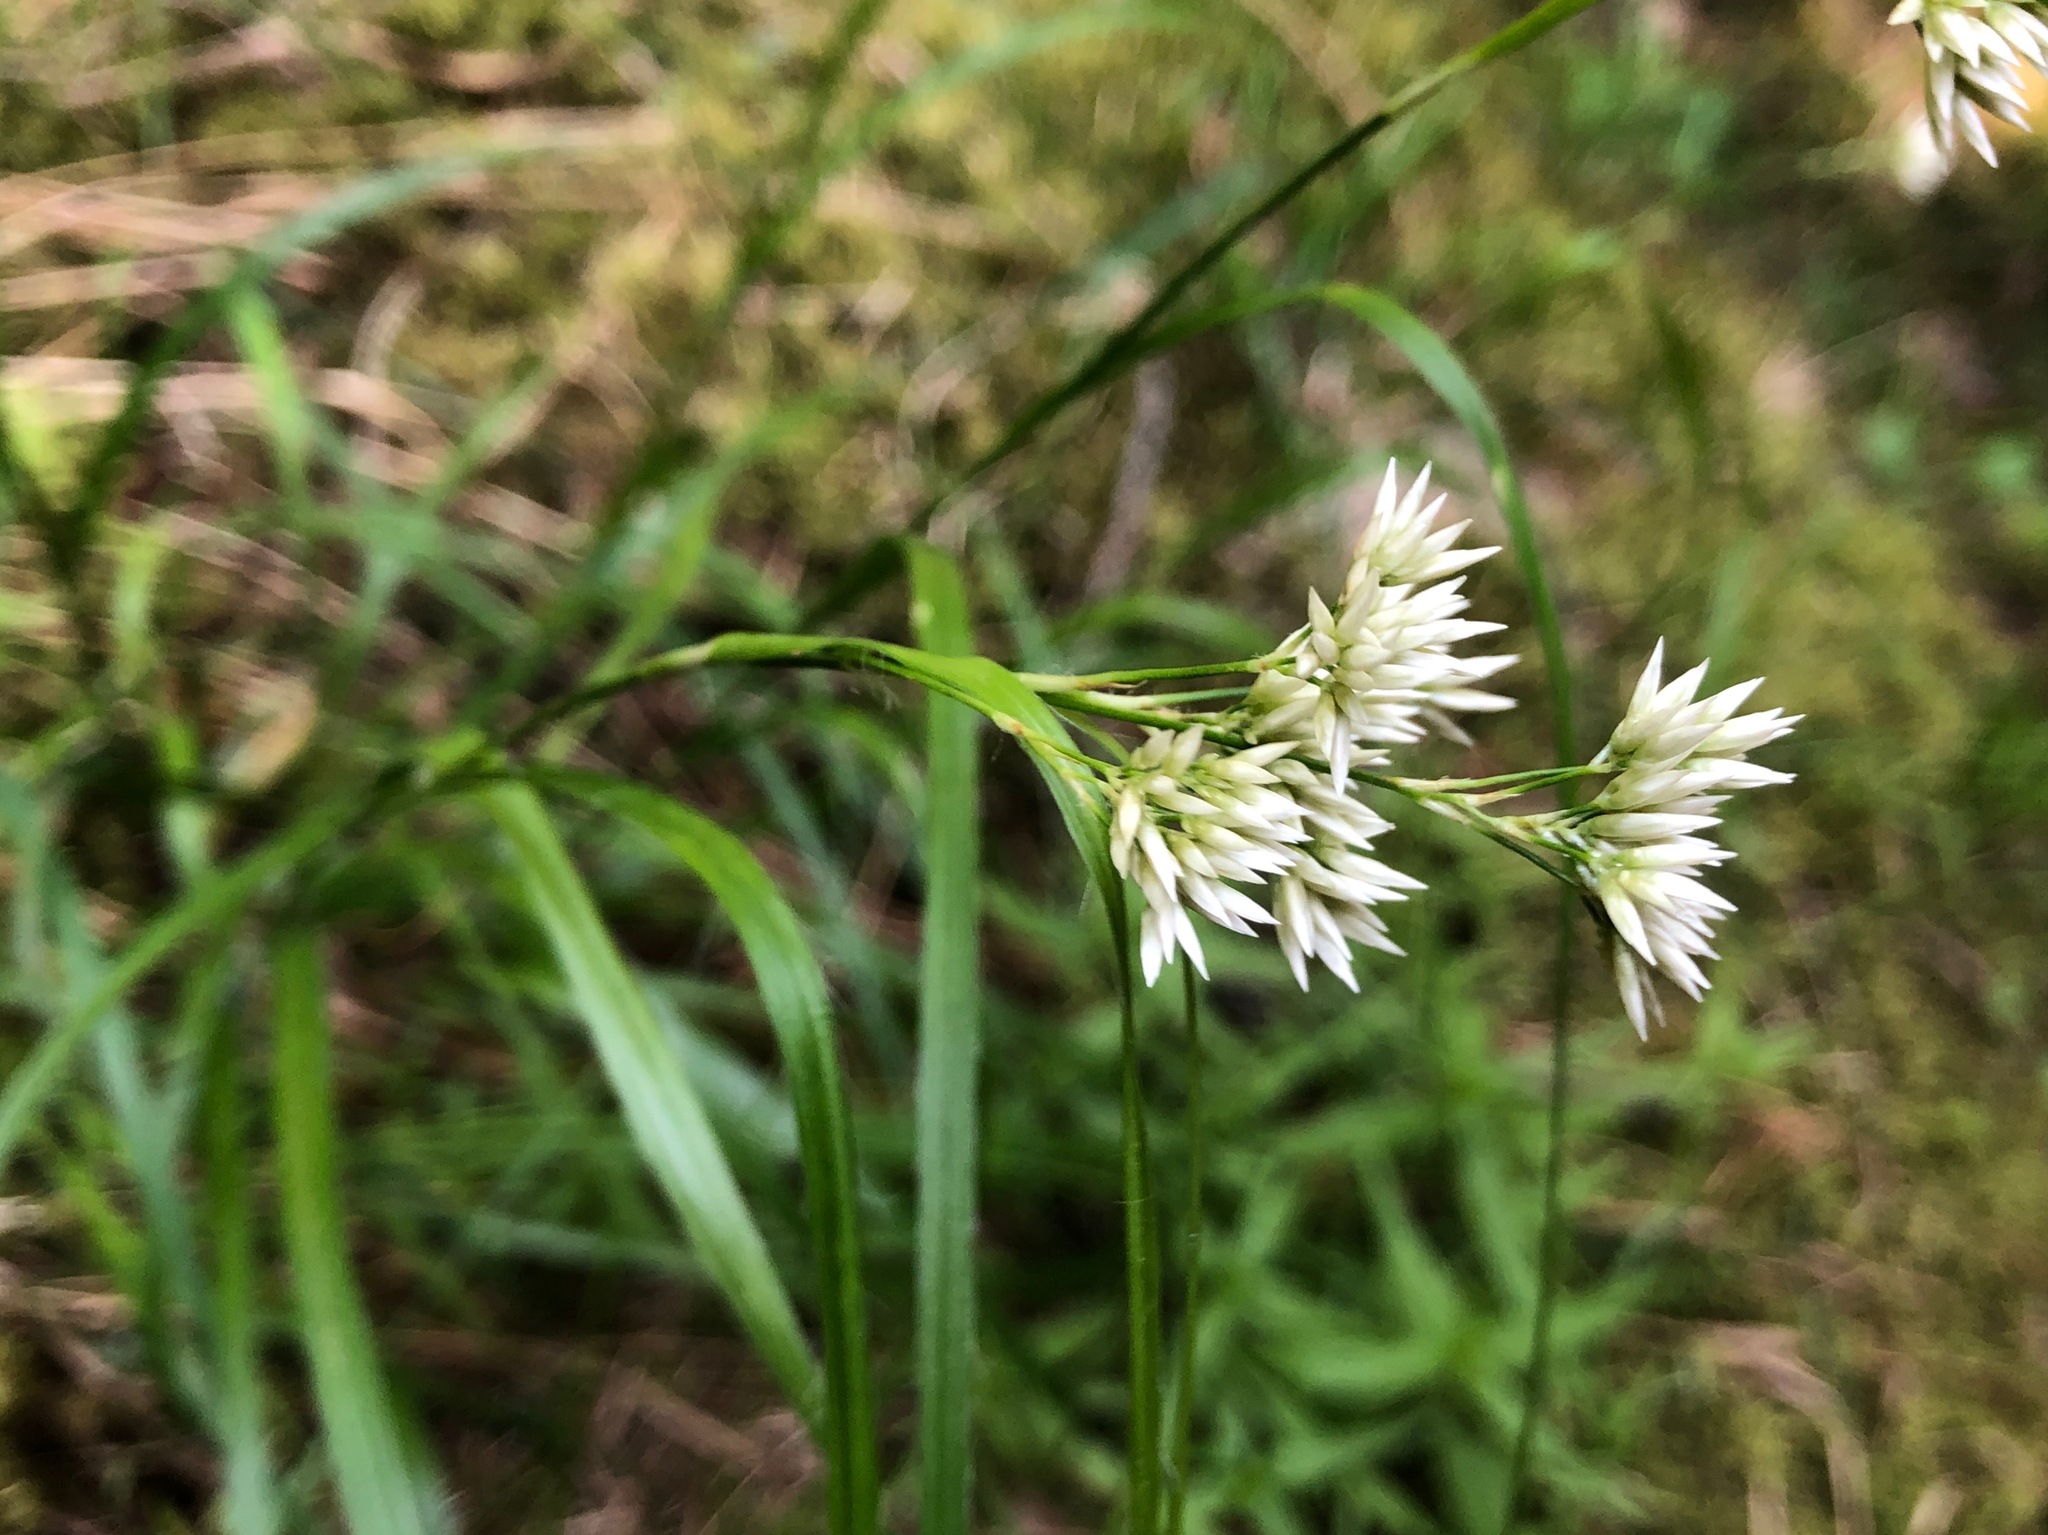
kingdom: Plantae
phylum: Tracheophyta
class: Liliopsida
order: Poales
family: Juncaceae
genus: Luzula
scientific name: Luzula nivea
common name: Snow-white wood-rush
